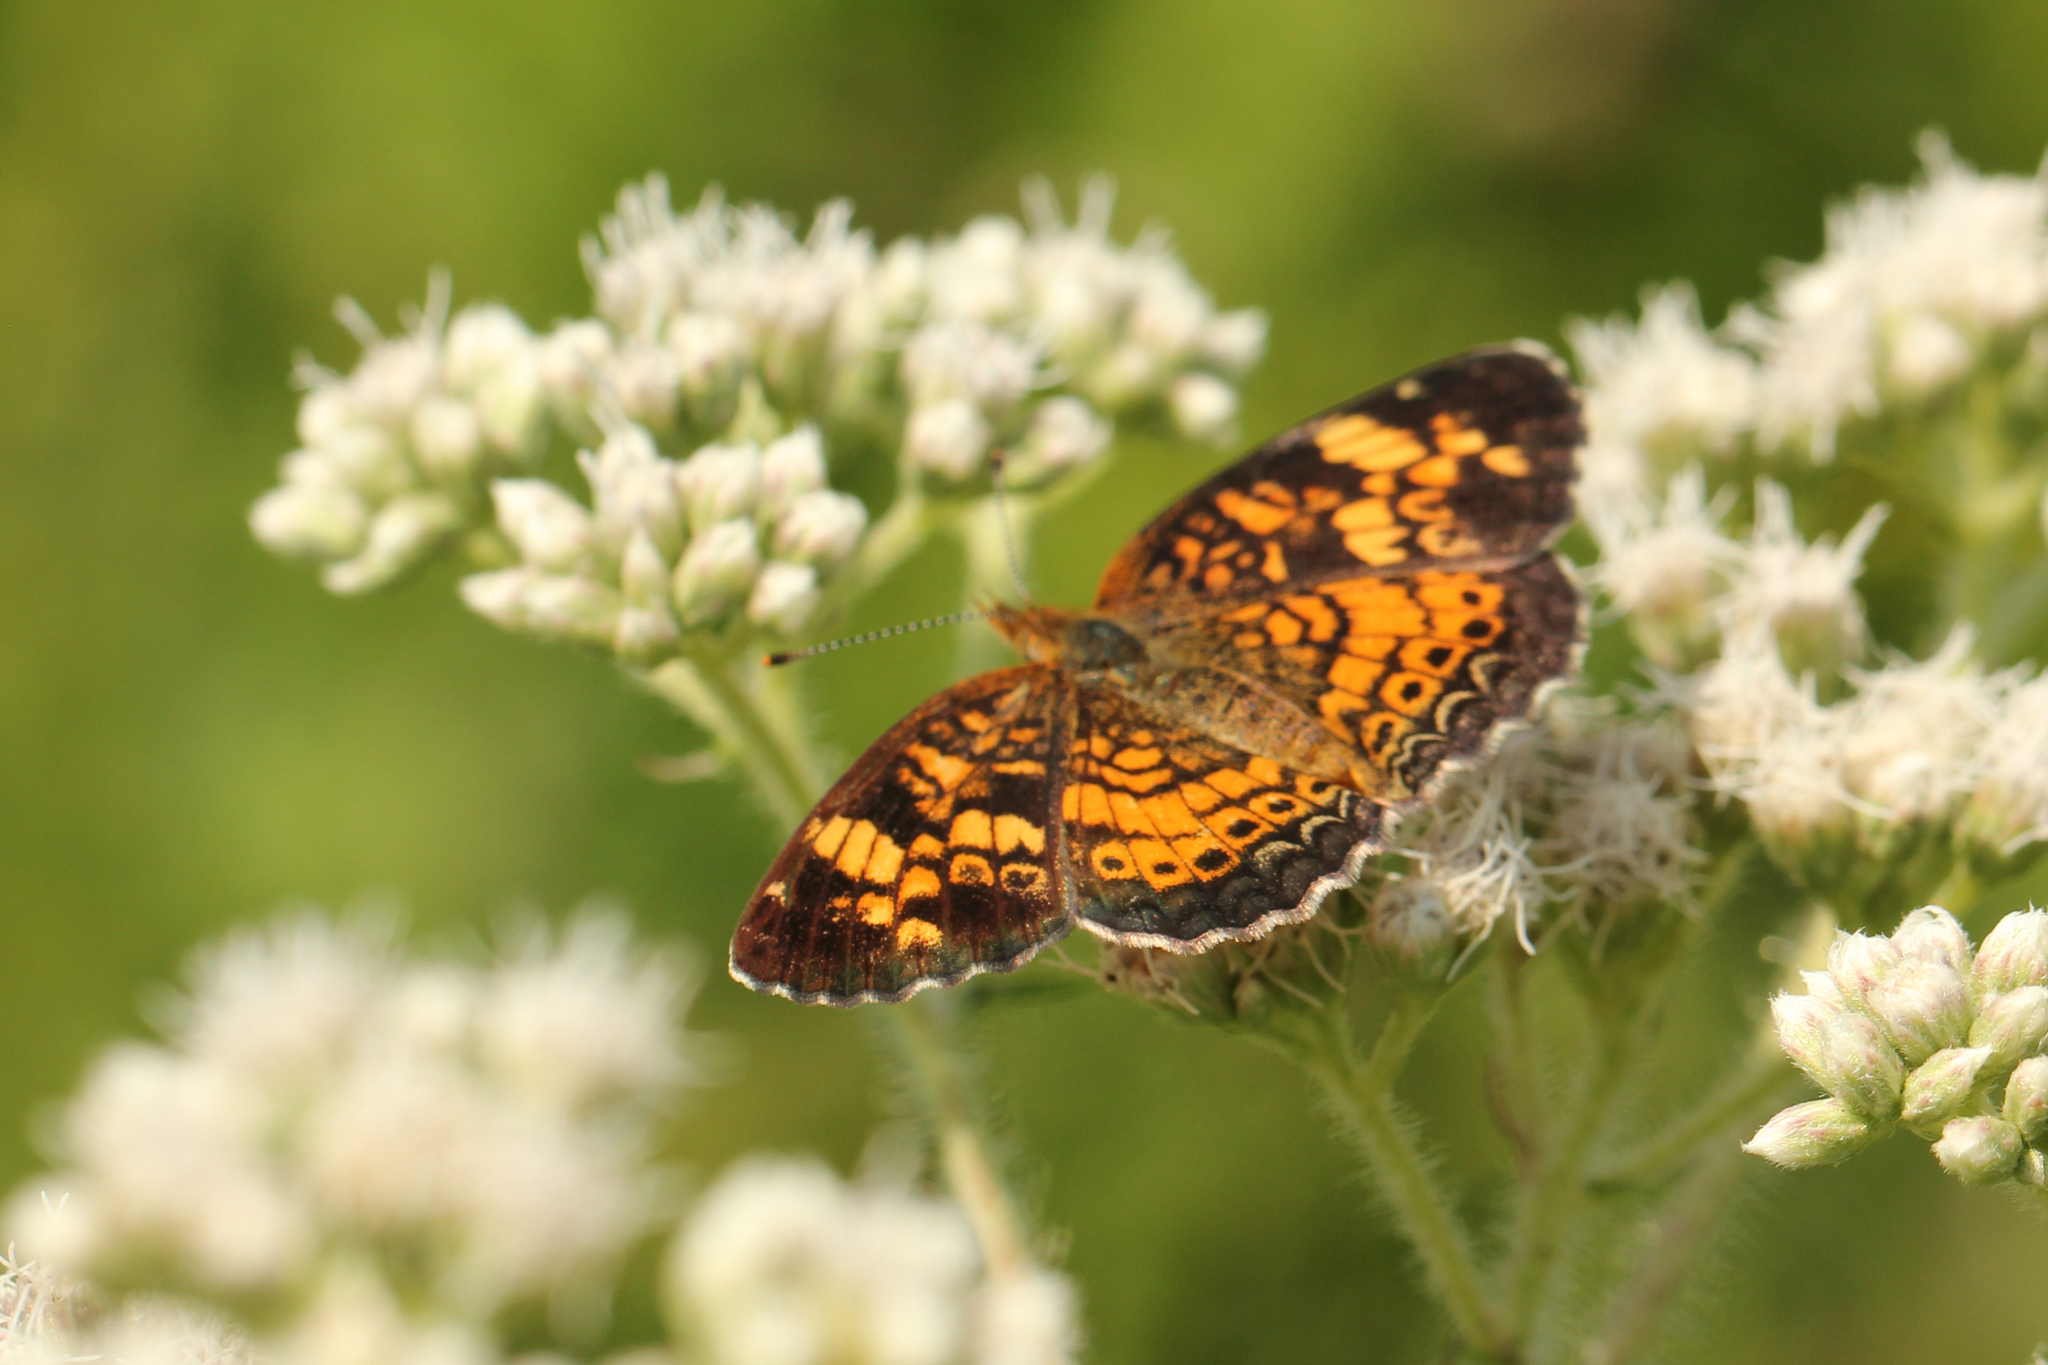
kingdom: Animalia
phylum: Arthropoda
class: Insecta
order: Lepidoptera
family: Nymphalidae
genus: Phyciodes
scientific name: Phyciodes tharos
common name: Pearl crescent
